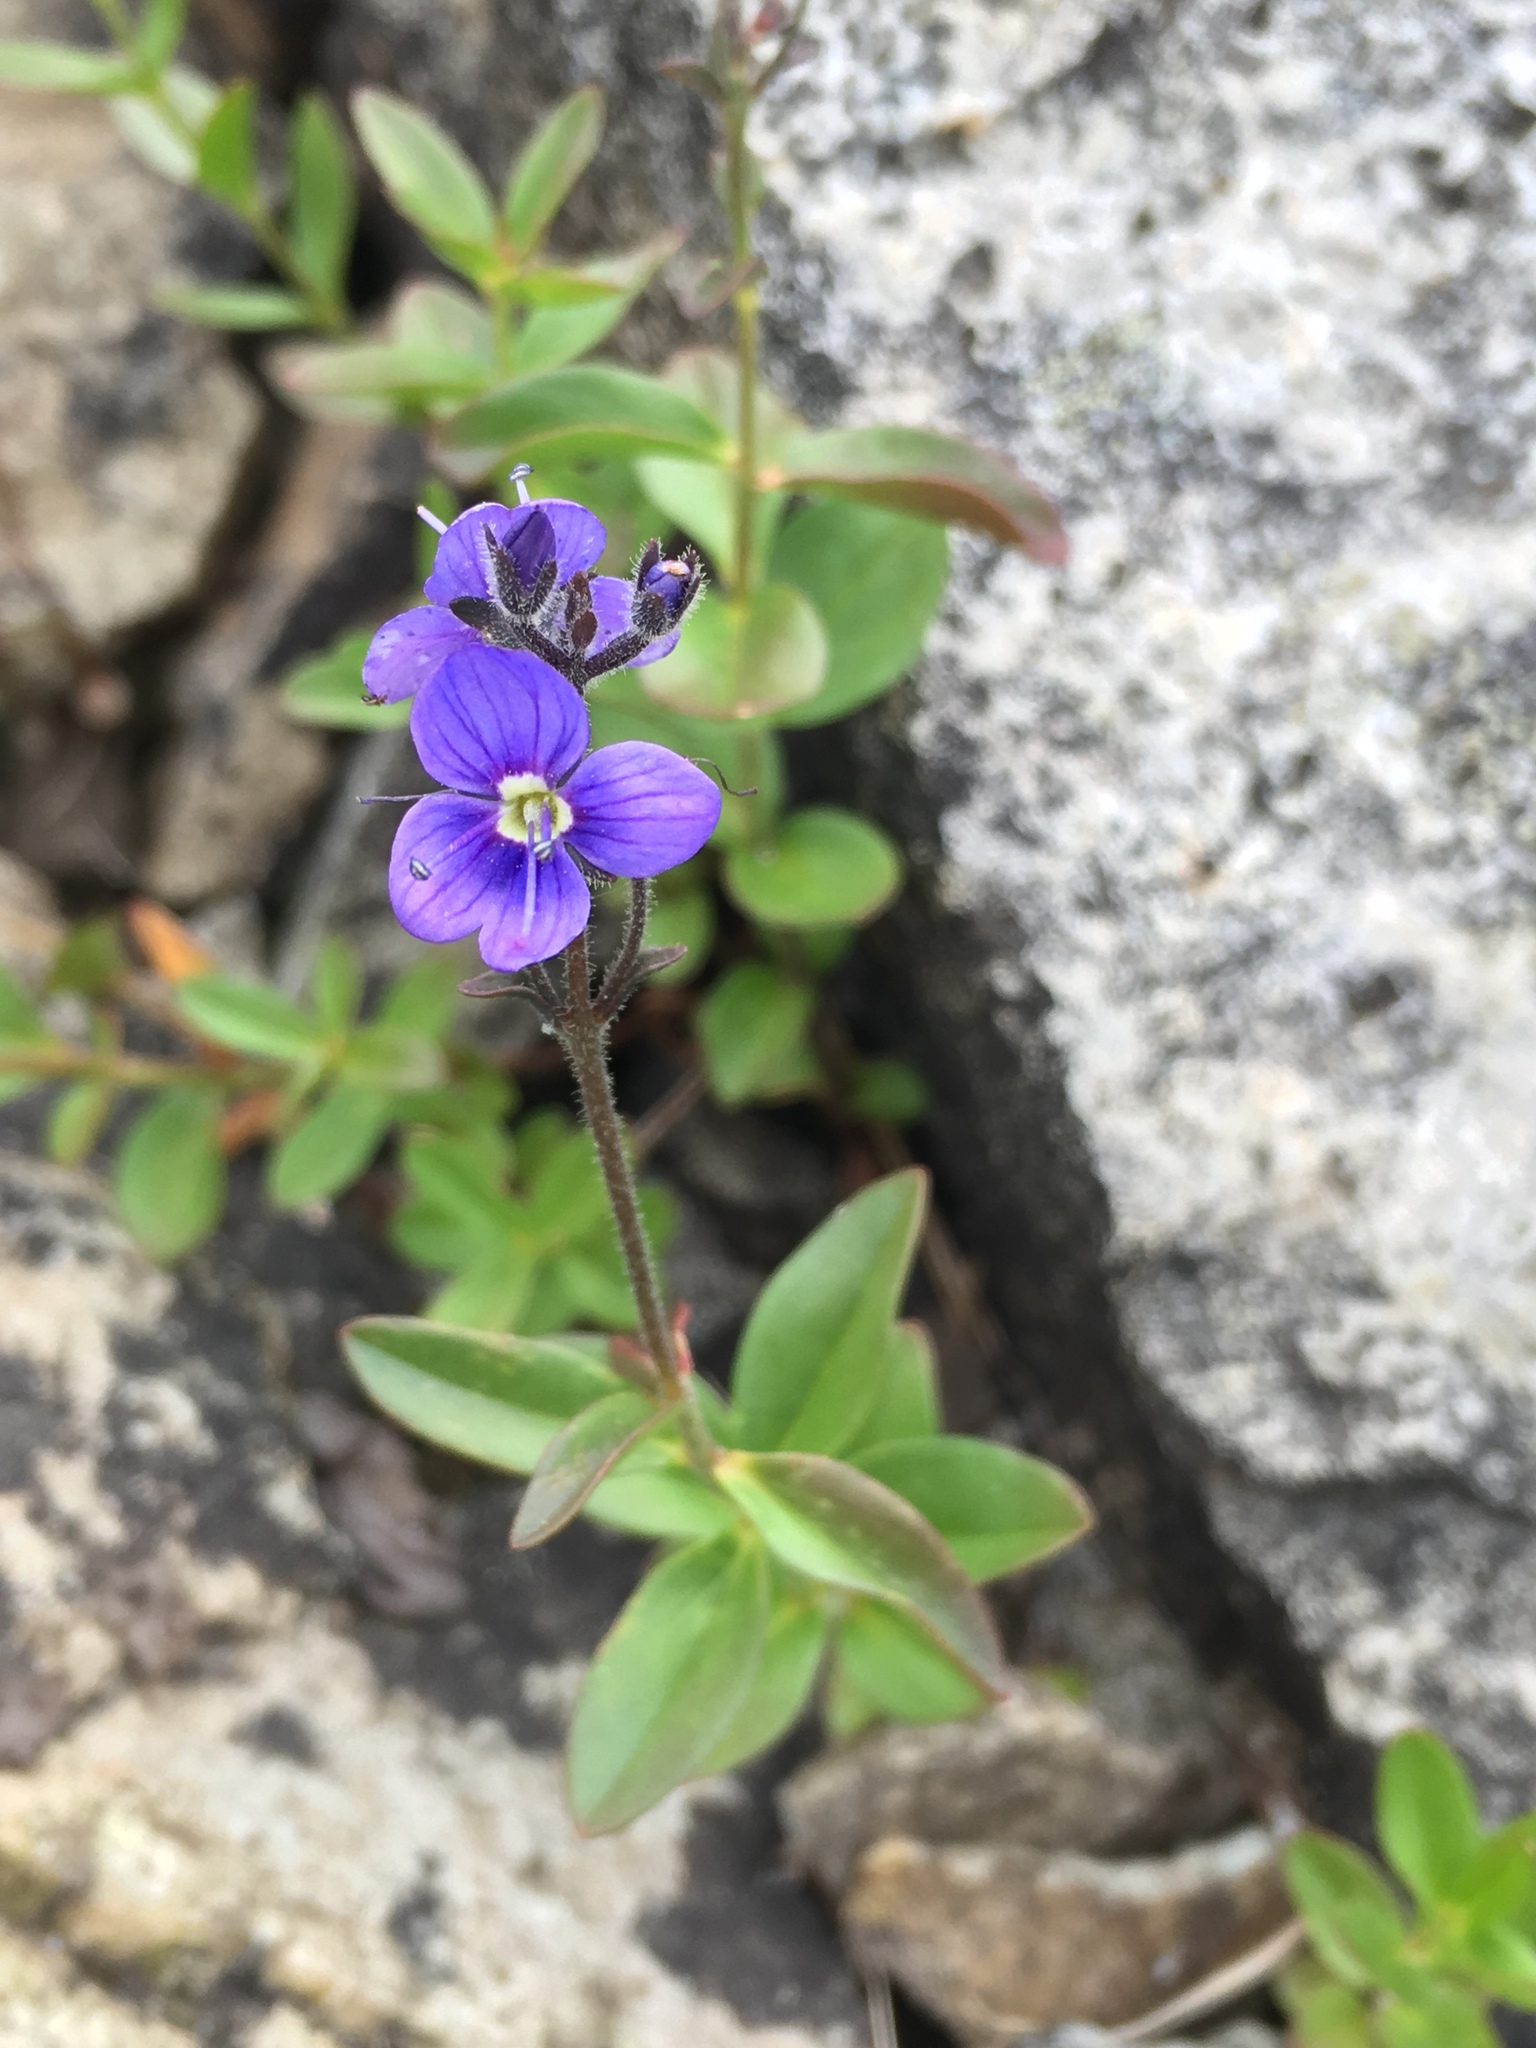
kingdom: Plantae
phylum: Tracheophyta
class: Magnoliopsida
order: Lamiales
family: Plantaginaceae
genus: Veronica
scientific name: Veronica cusickii
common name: Cusick's speedwell
